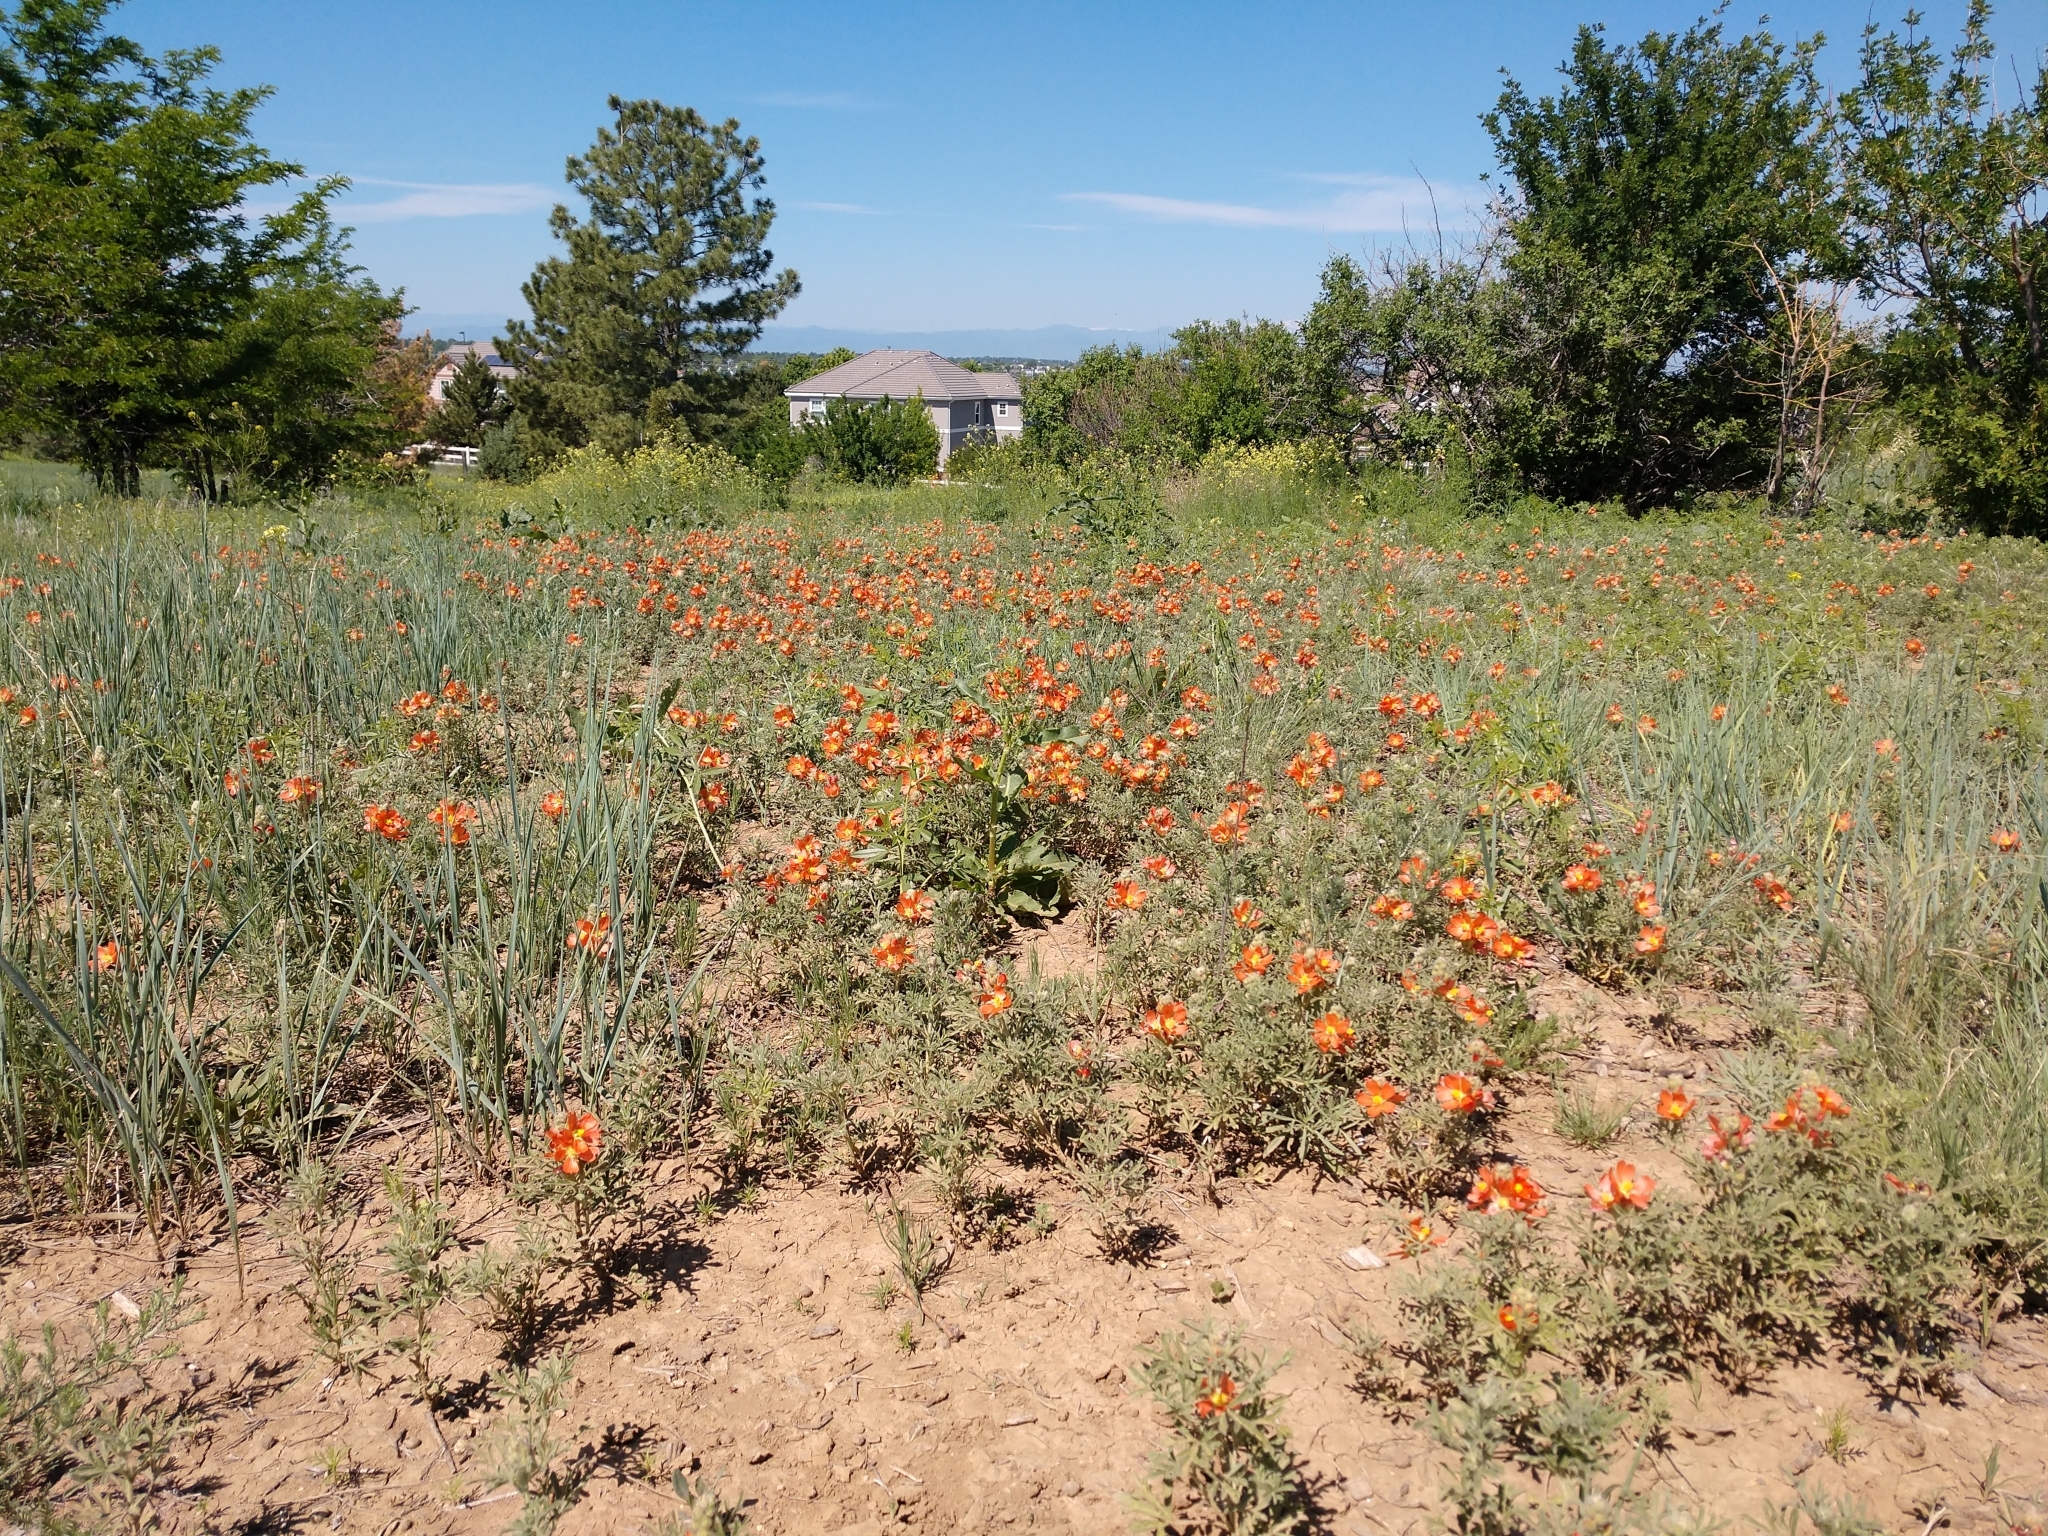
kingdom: Plantae
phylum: Tracheophyta
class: Magnoliopsida
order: Malvales
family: Malvaceae
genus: Sphaeralcea
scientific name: Sphaeralcea coccinea
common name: Moss-rose
